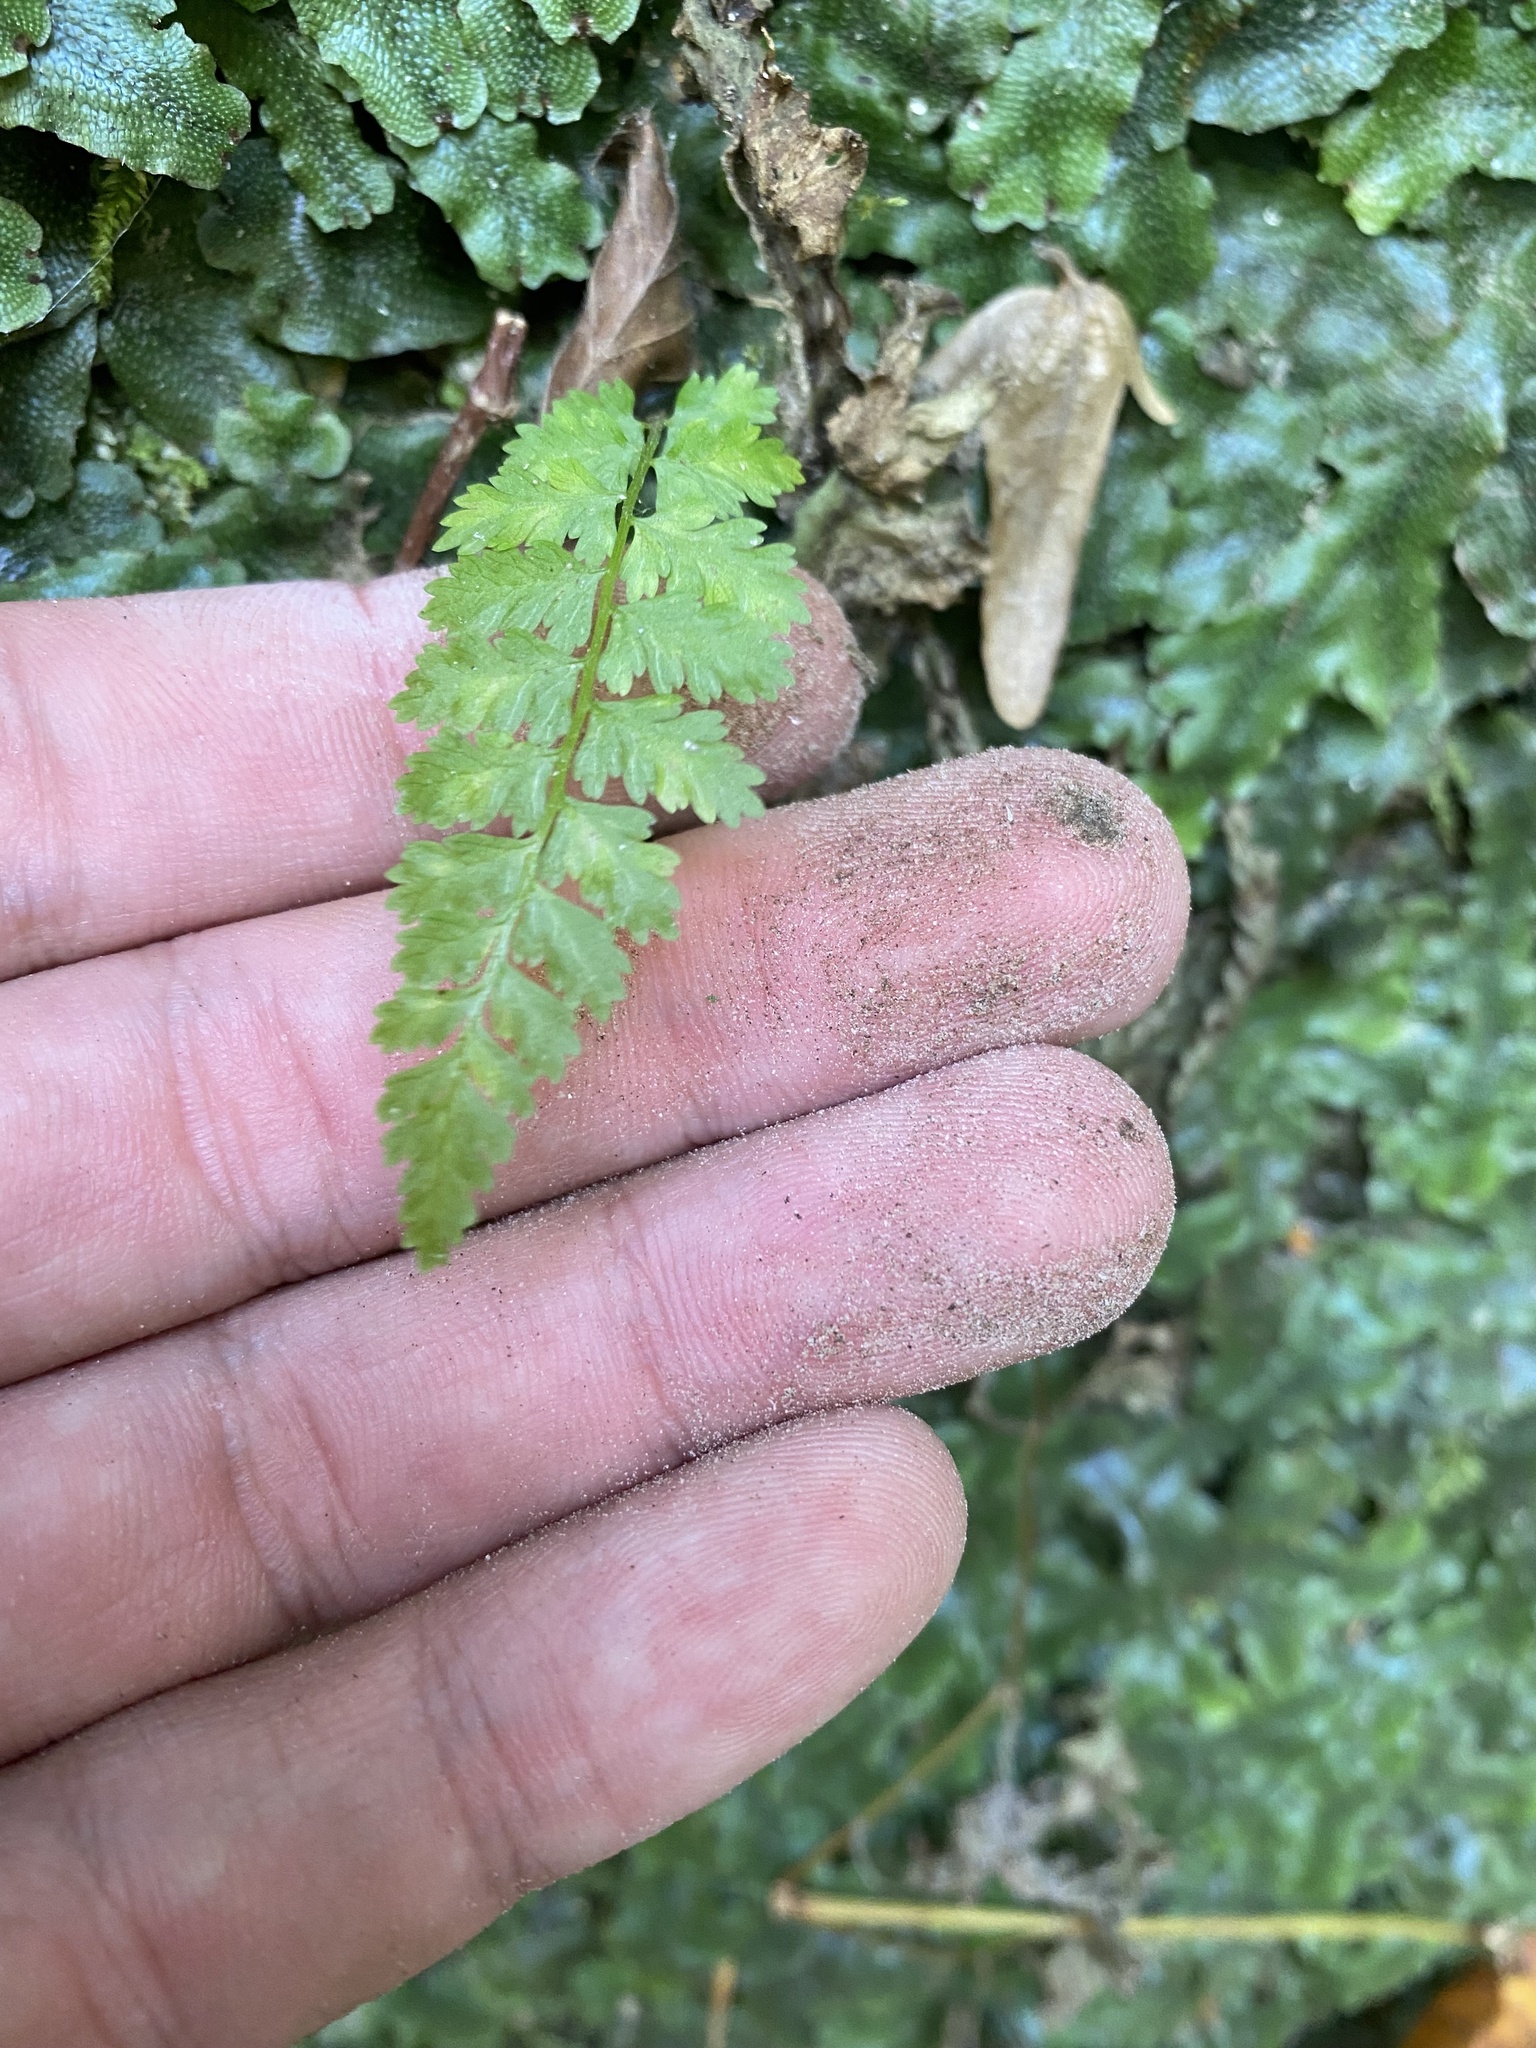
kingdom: Plantae
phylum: Tracheophyta
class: Polypodiopsida
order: Polypodiales
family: Cystopteridaceae
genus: Cystopteris
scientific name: Cystopteris fragilis
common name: Brittle bladder fern
